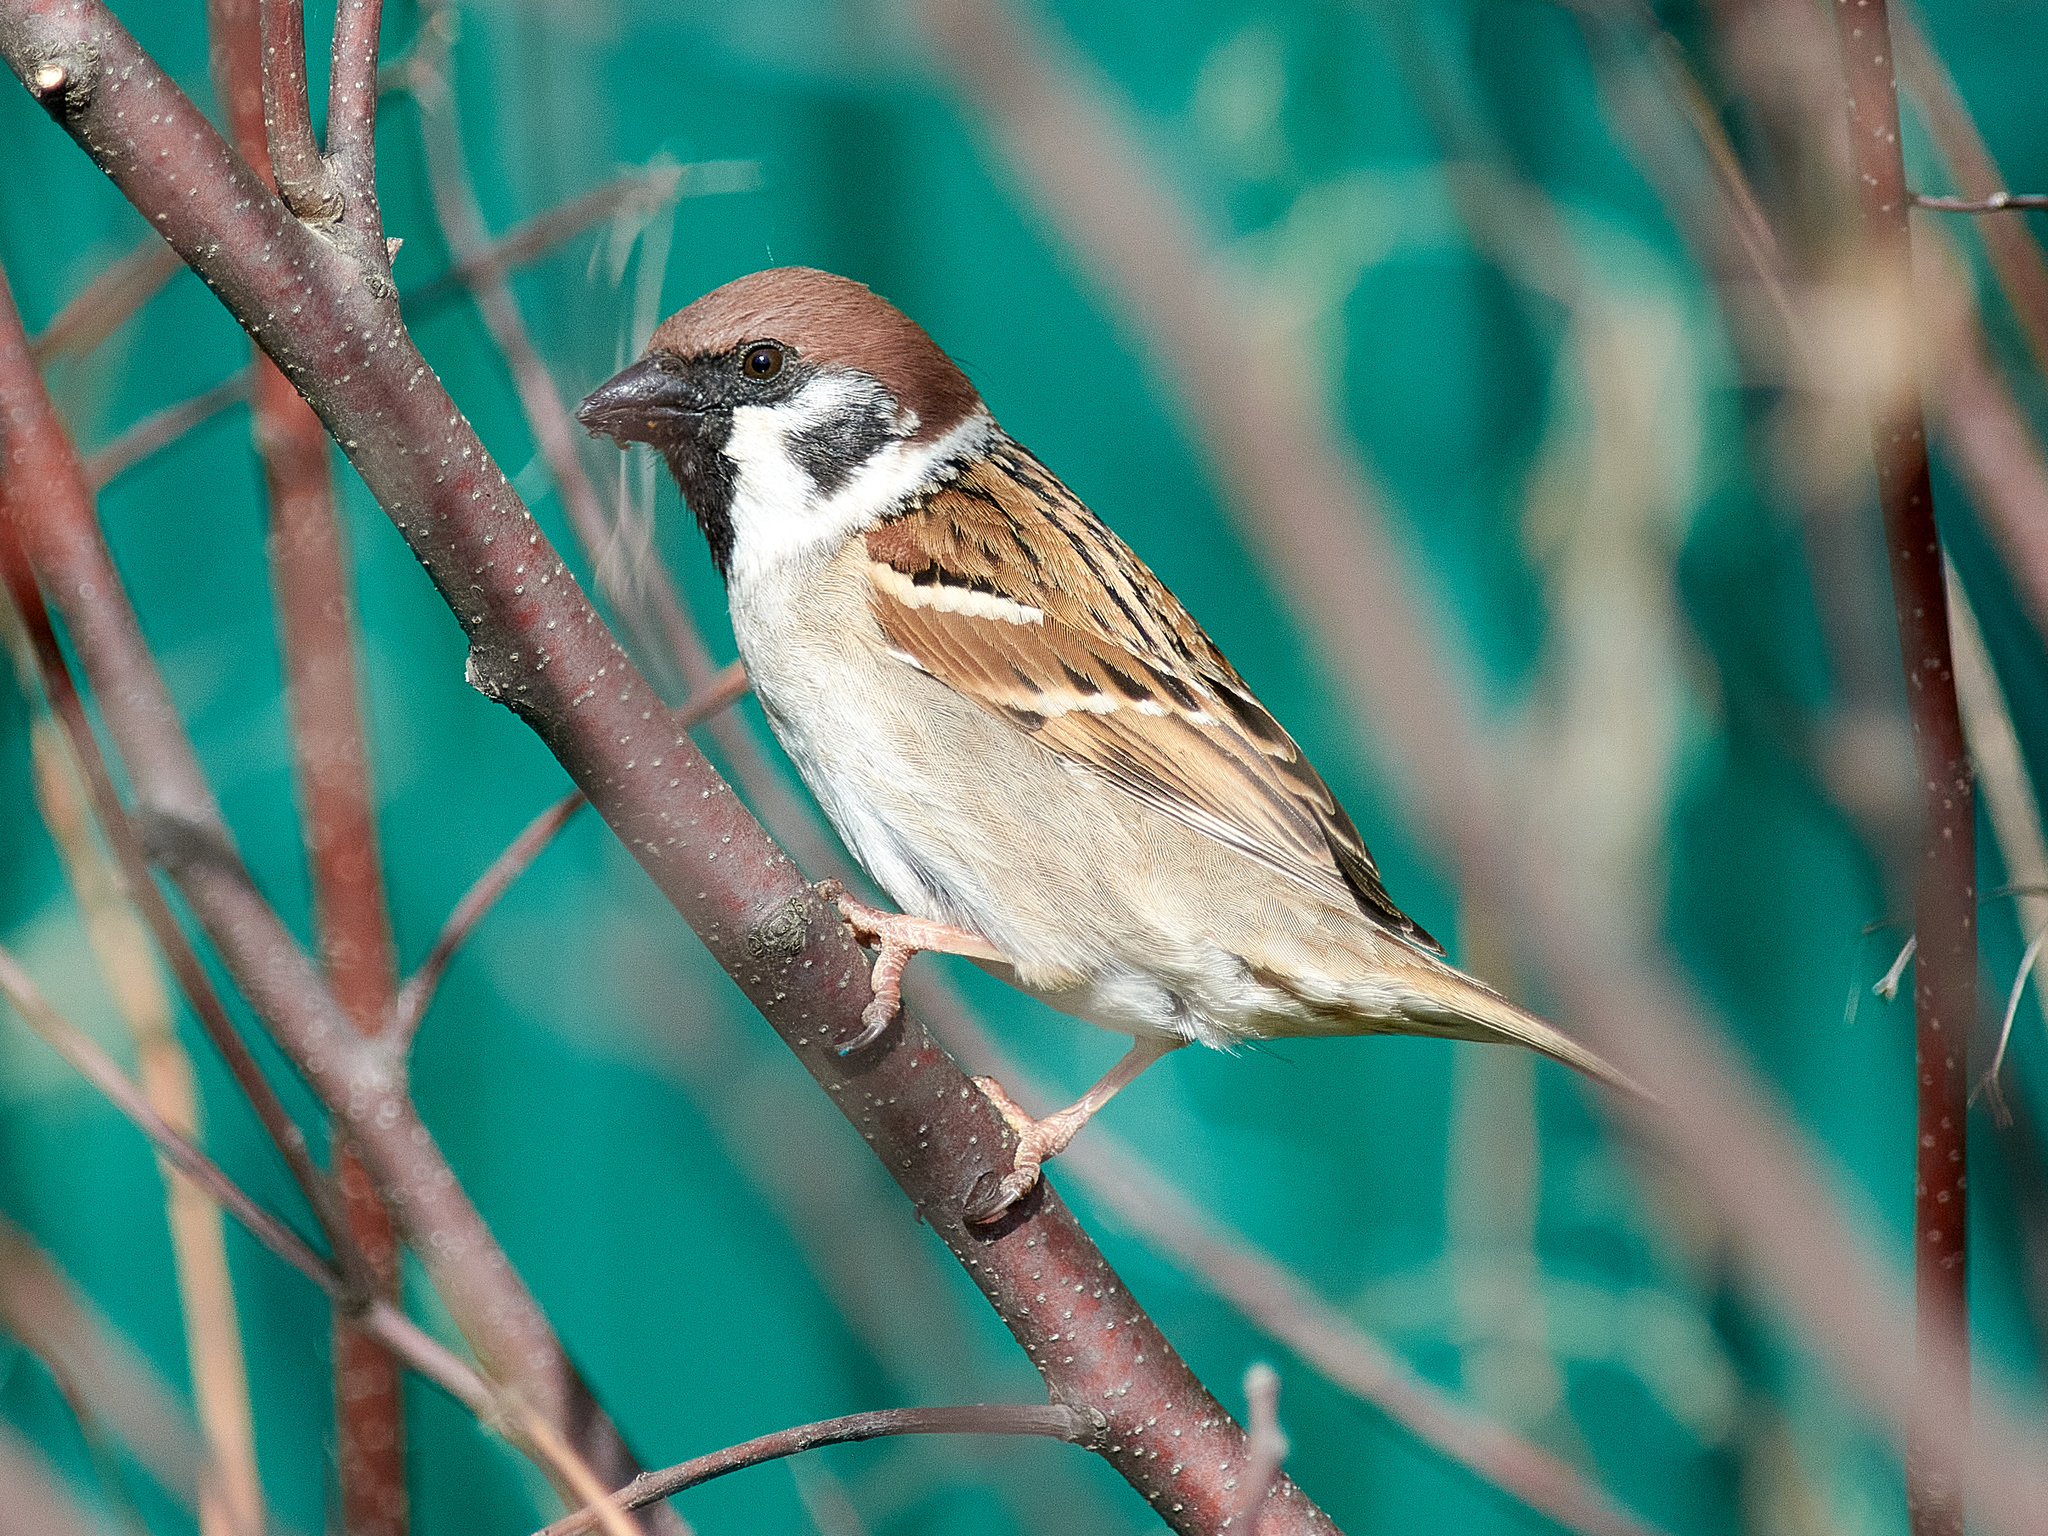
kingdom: Animalia
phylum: Chordata
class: Aves
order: Passeriformes
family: Passeridae
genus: Passer
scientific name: Passer montanus
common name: Eurasian tree sparrow
